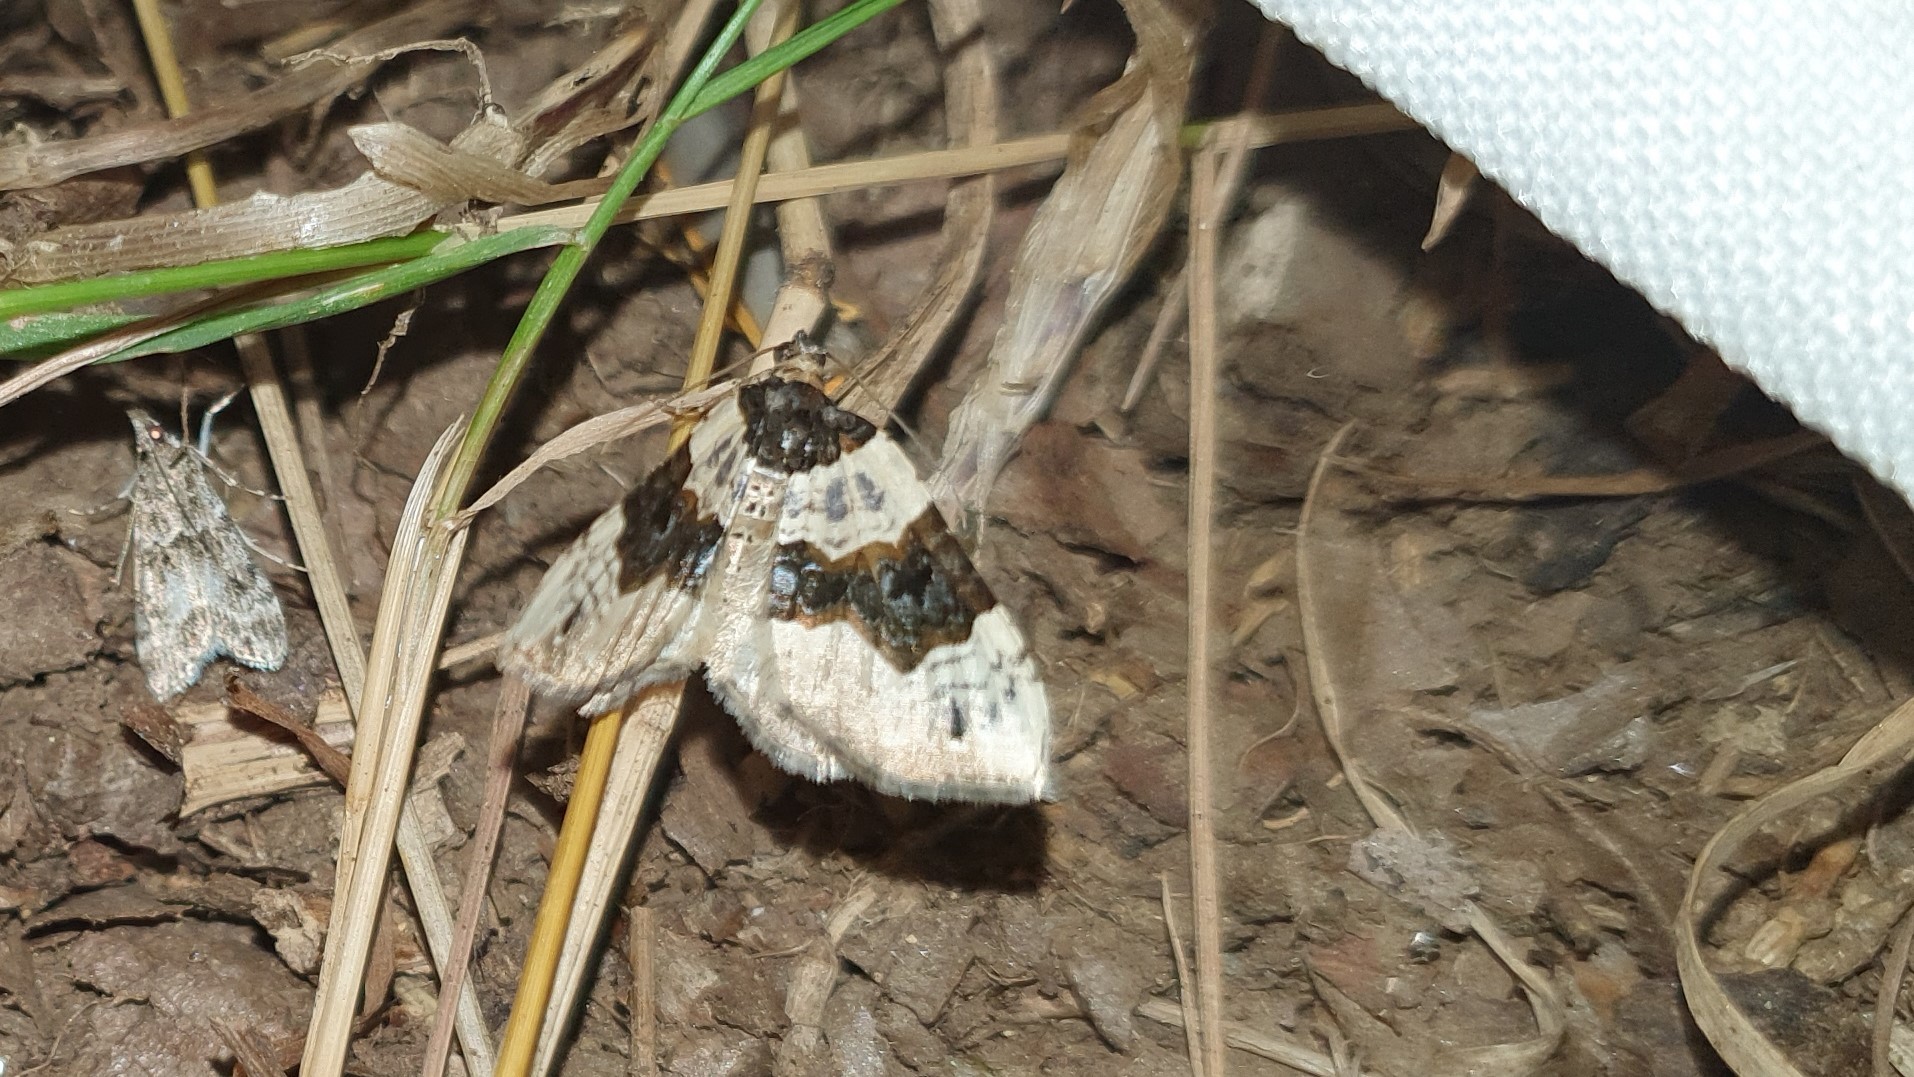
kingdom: Animalia
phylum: Arthropoda
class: Insecta
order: Lepidoptera
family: Geometridae
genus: Cosmorhoe
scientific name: Cosmorhoe ocellata
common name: Purple bar
